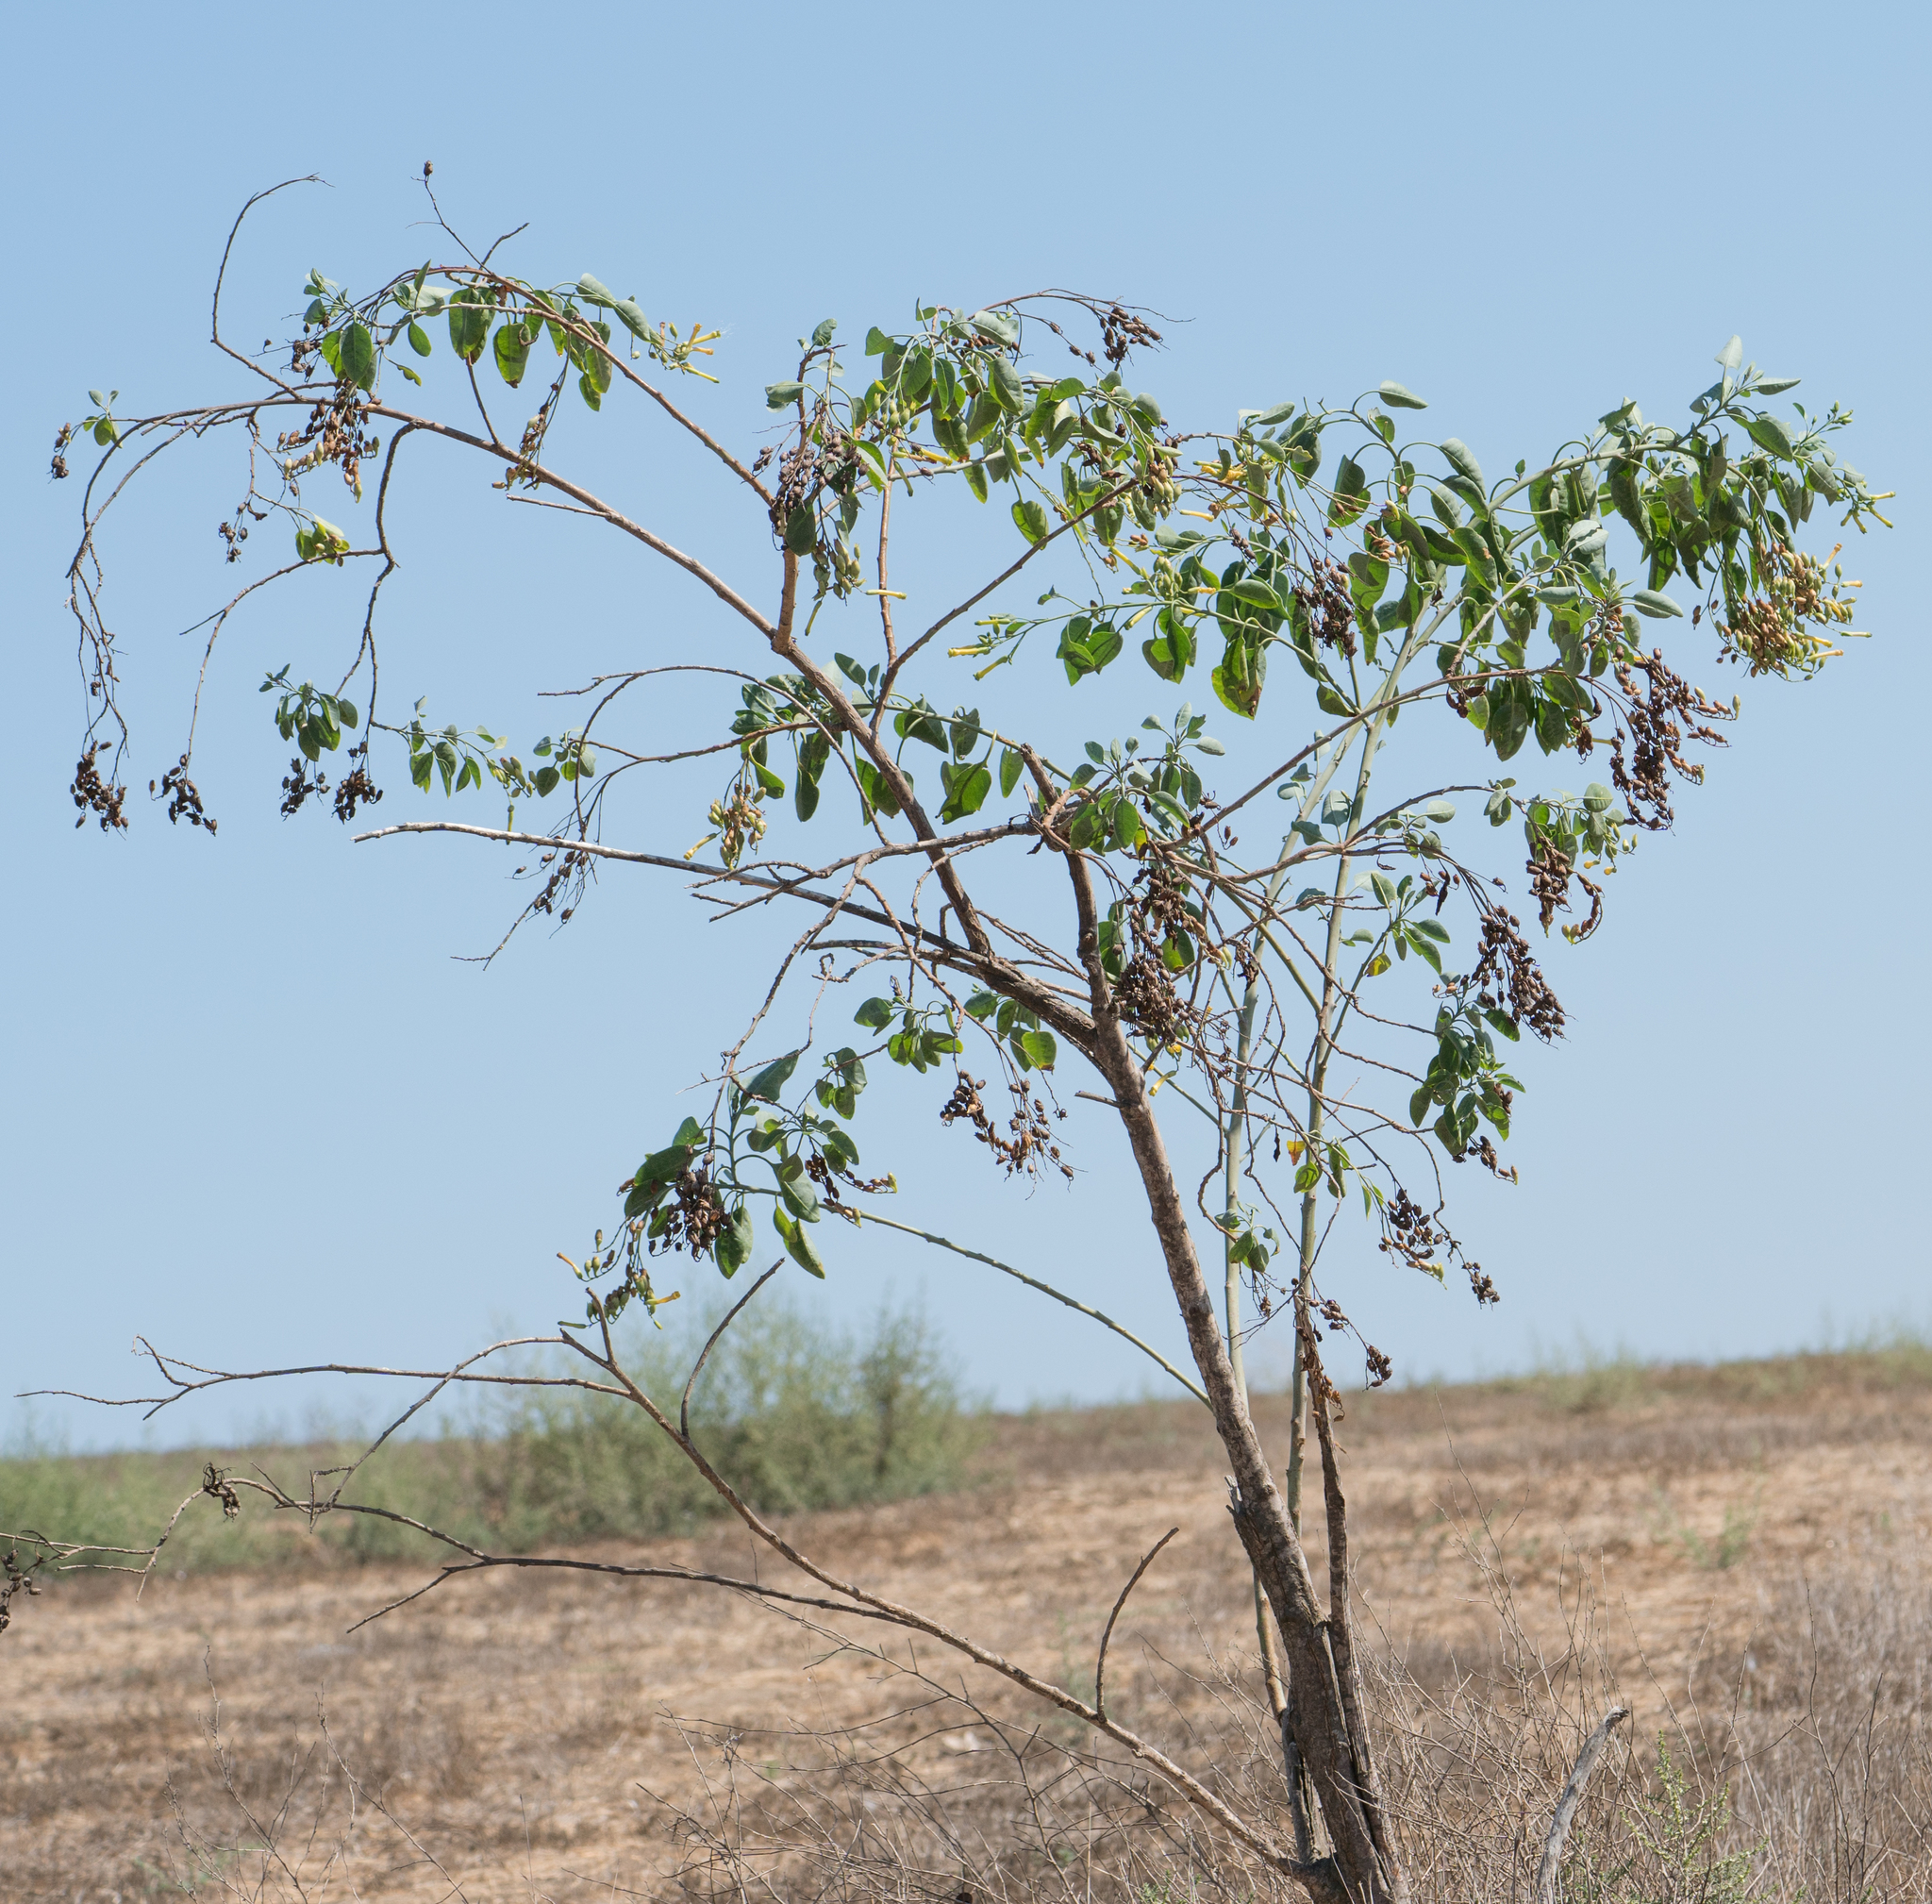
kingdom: Plantae
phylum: Tracheophyta
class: Magnoliopsida
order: Solanales
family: Solanaceae
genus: Nicotiana
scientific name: Nicotiana glauca
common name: Tree tobacco
